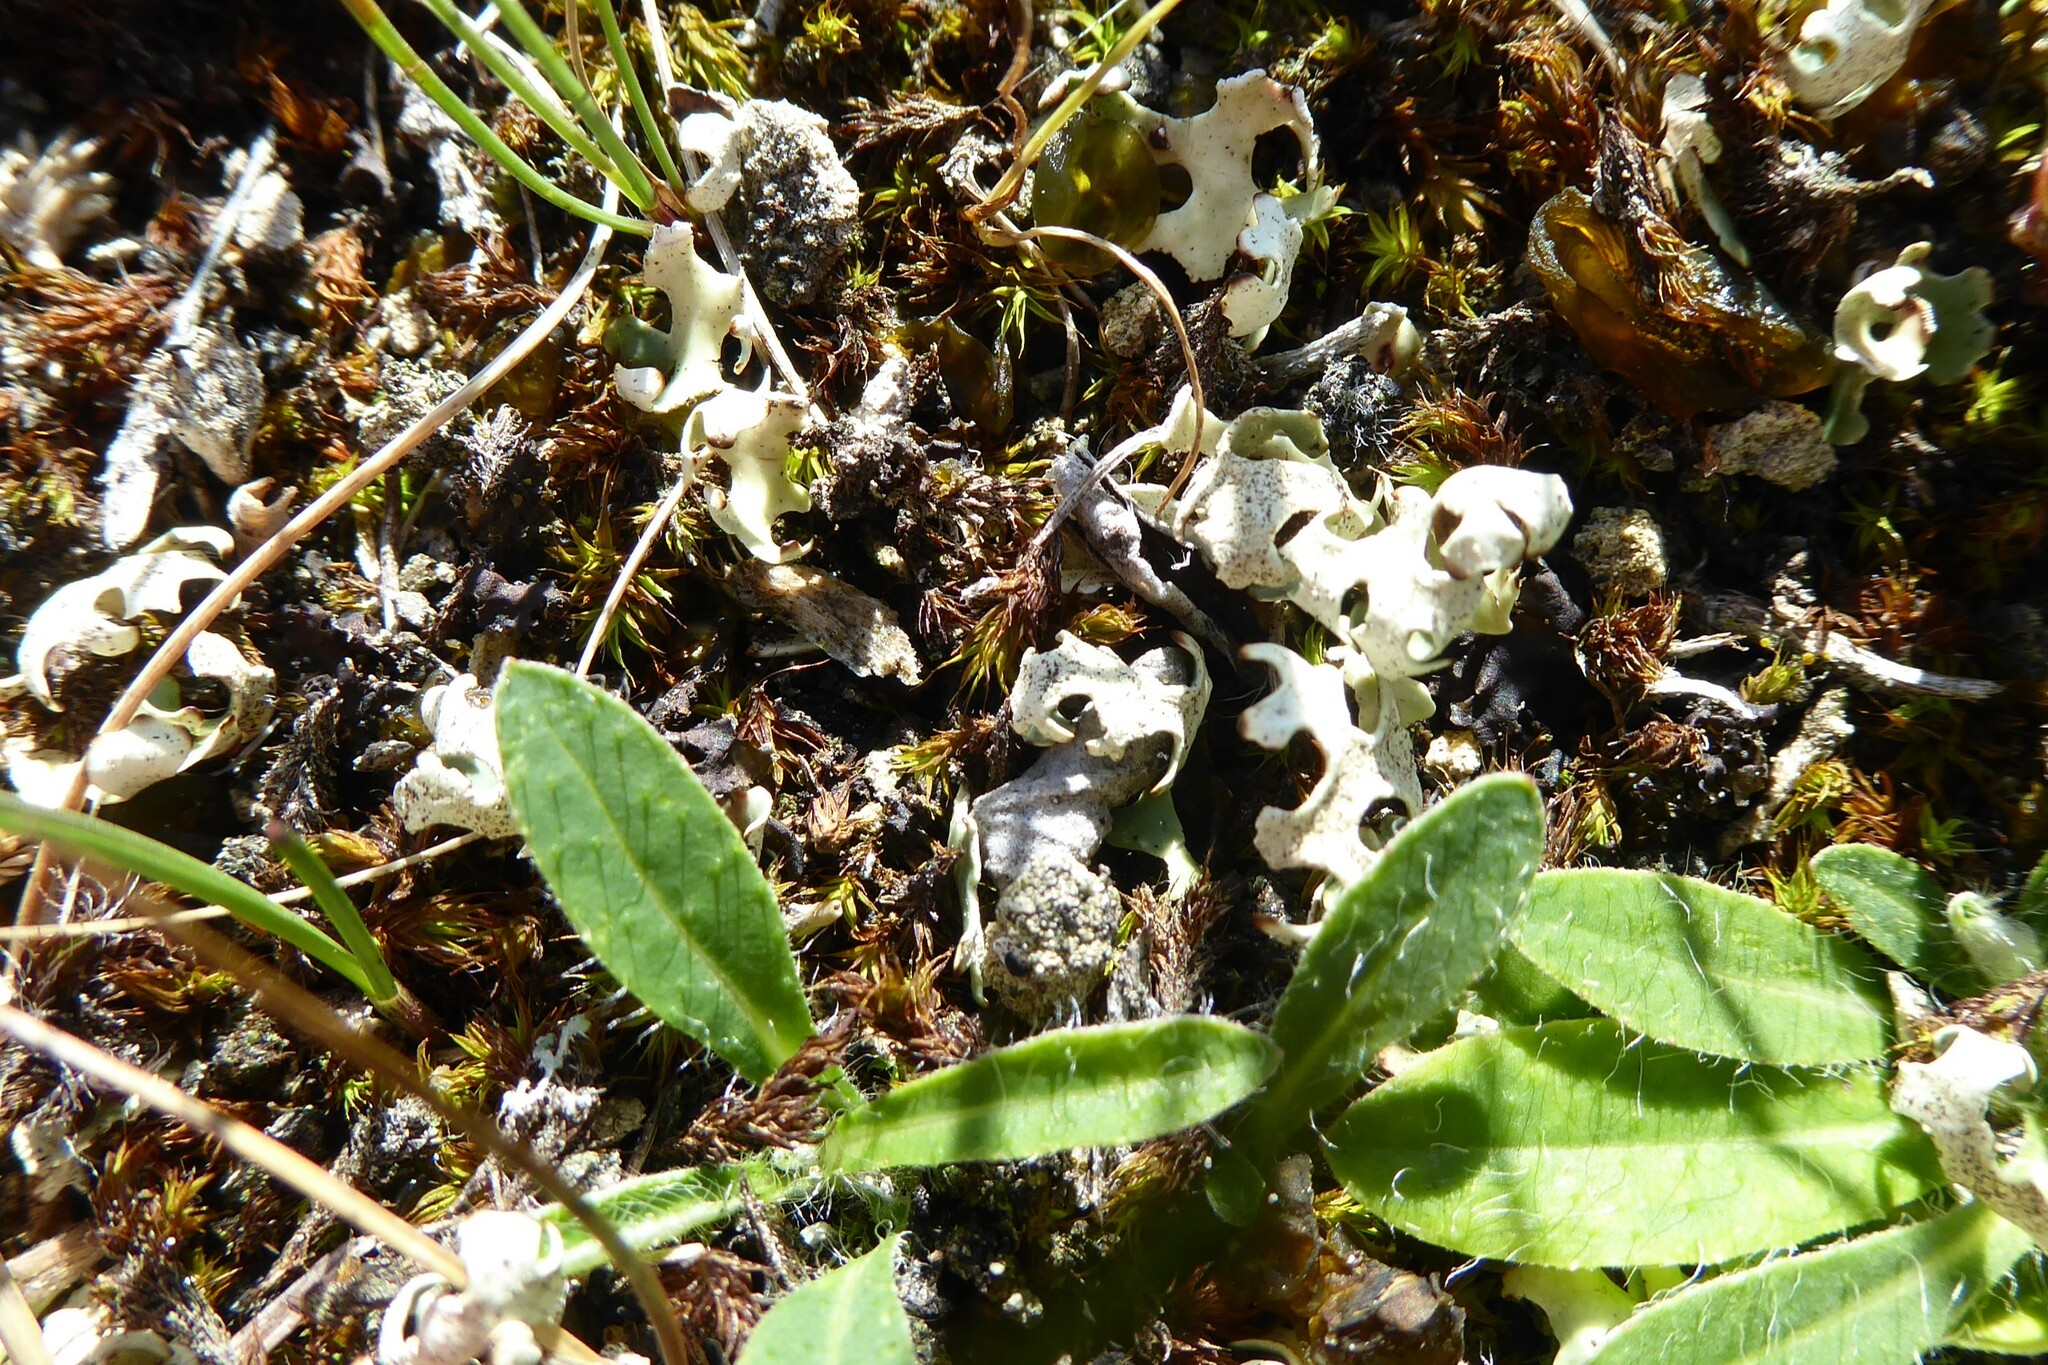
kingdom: Fungi
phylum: Ascomycota
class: Lecanoromycetes
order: Lecanorales
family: Parmeliaceae
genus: Xanthoparmelia
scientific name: Xanthoparmelia semiviridis
